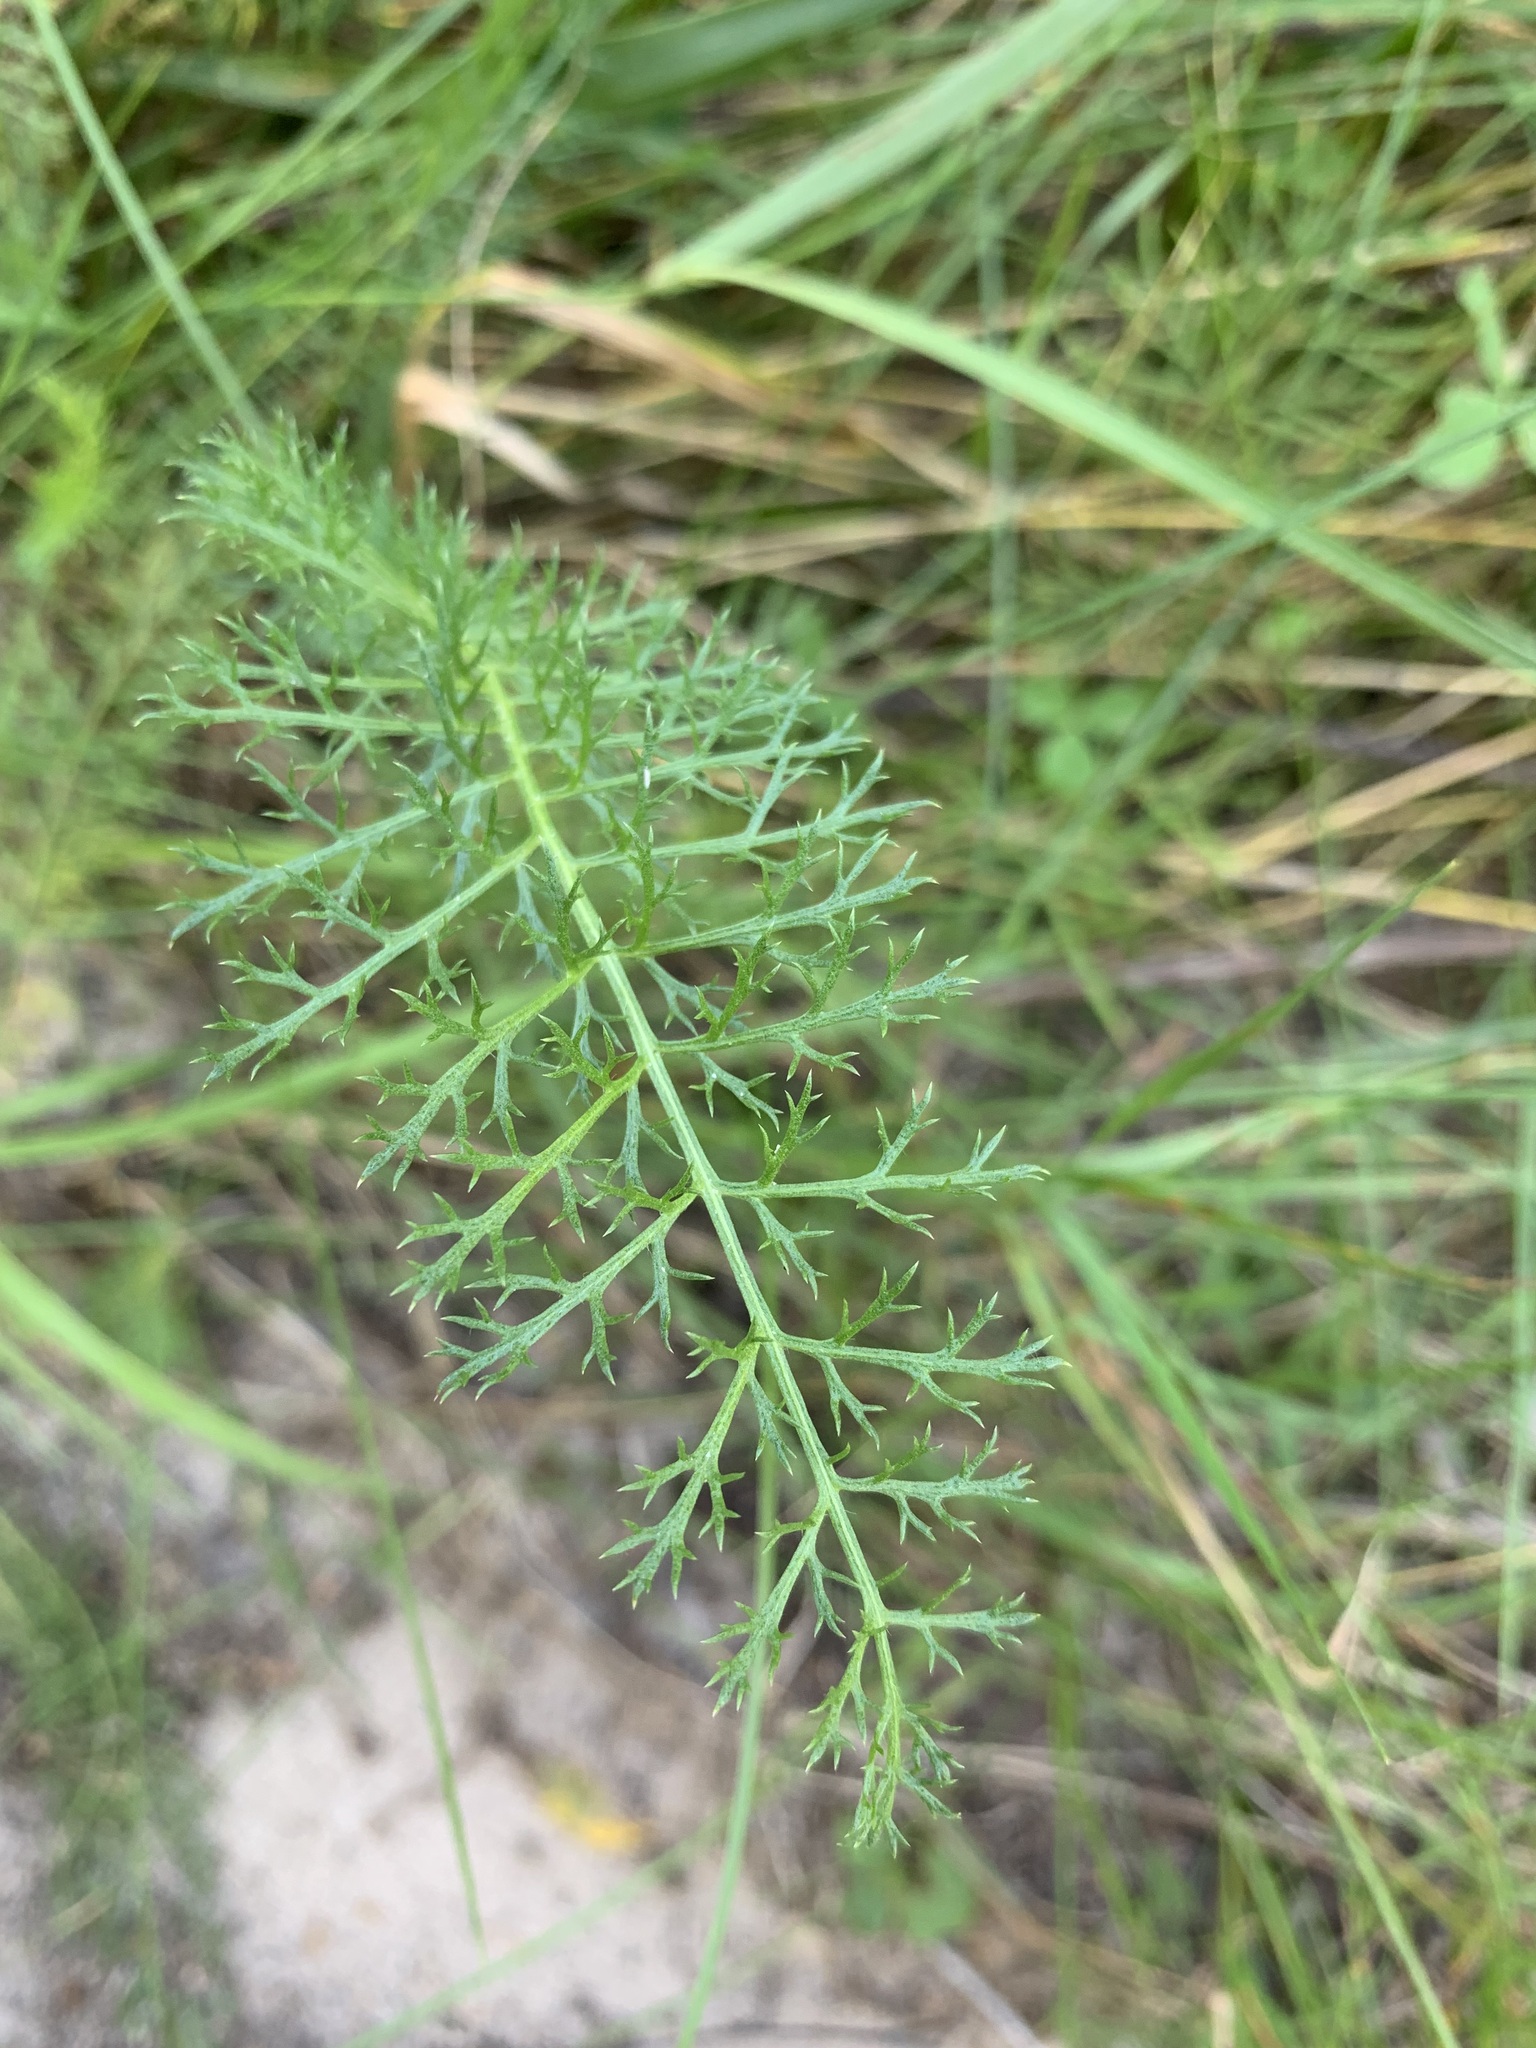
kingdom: Plantae
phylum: Tracheophyta
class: Magnoliopsida
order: Asterales
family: Asteraceae
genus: Achillea
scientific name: Achillea asiatica
